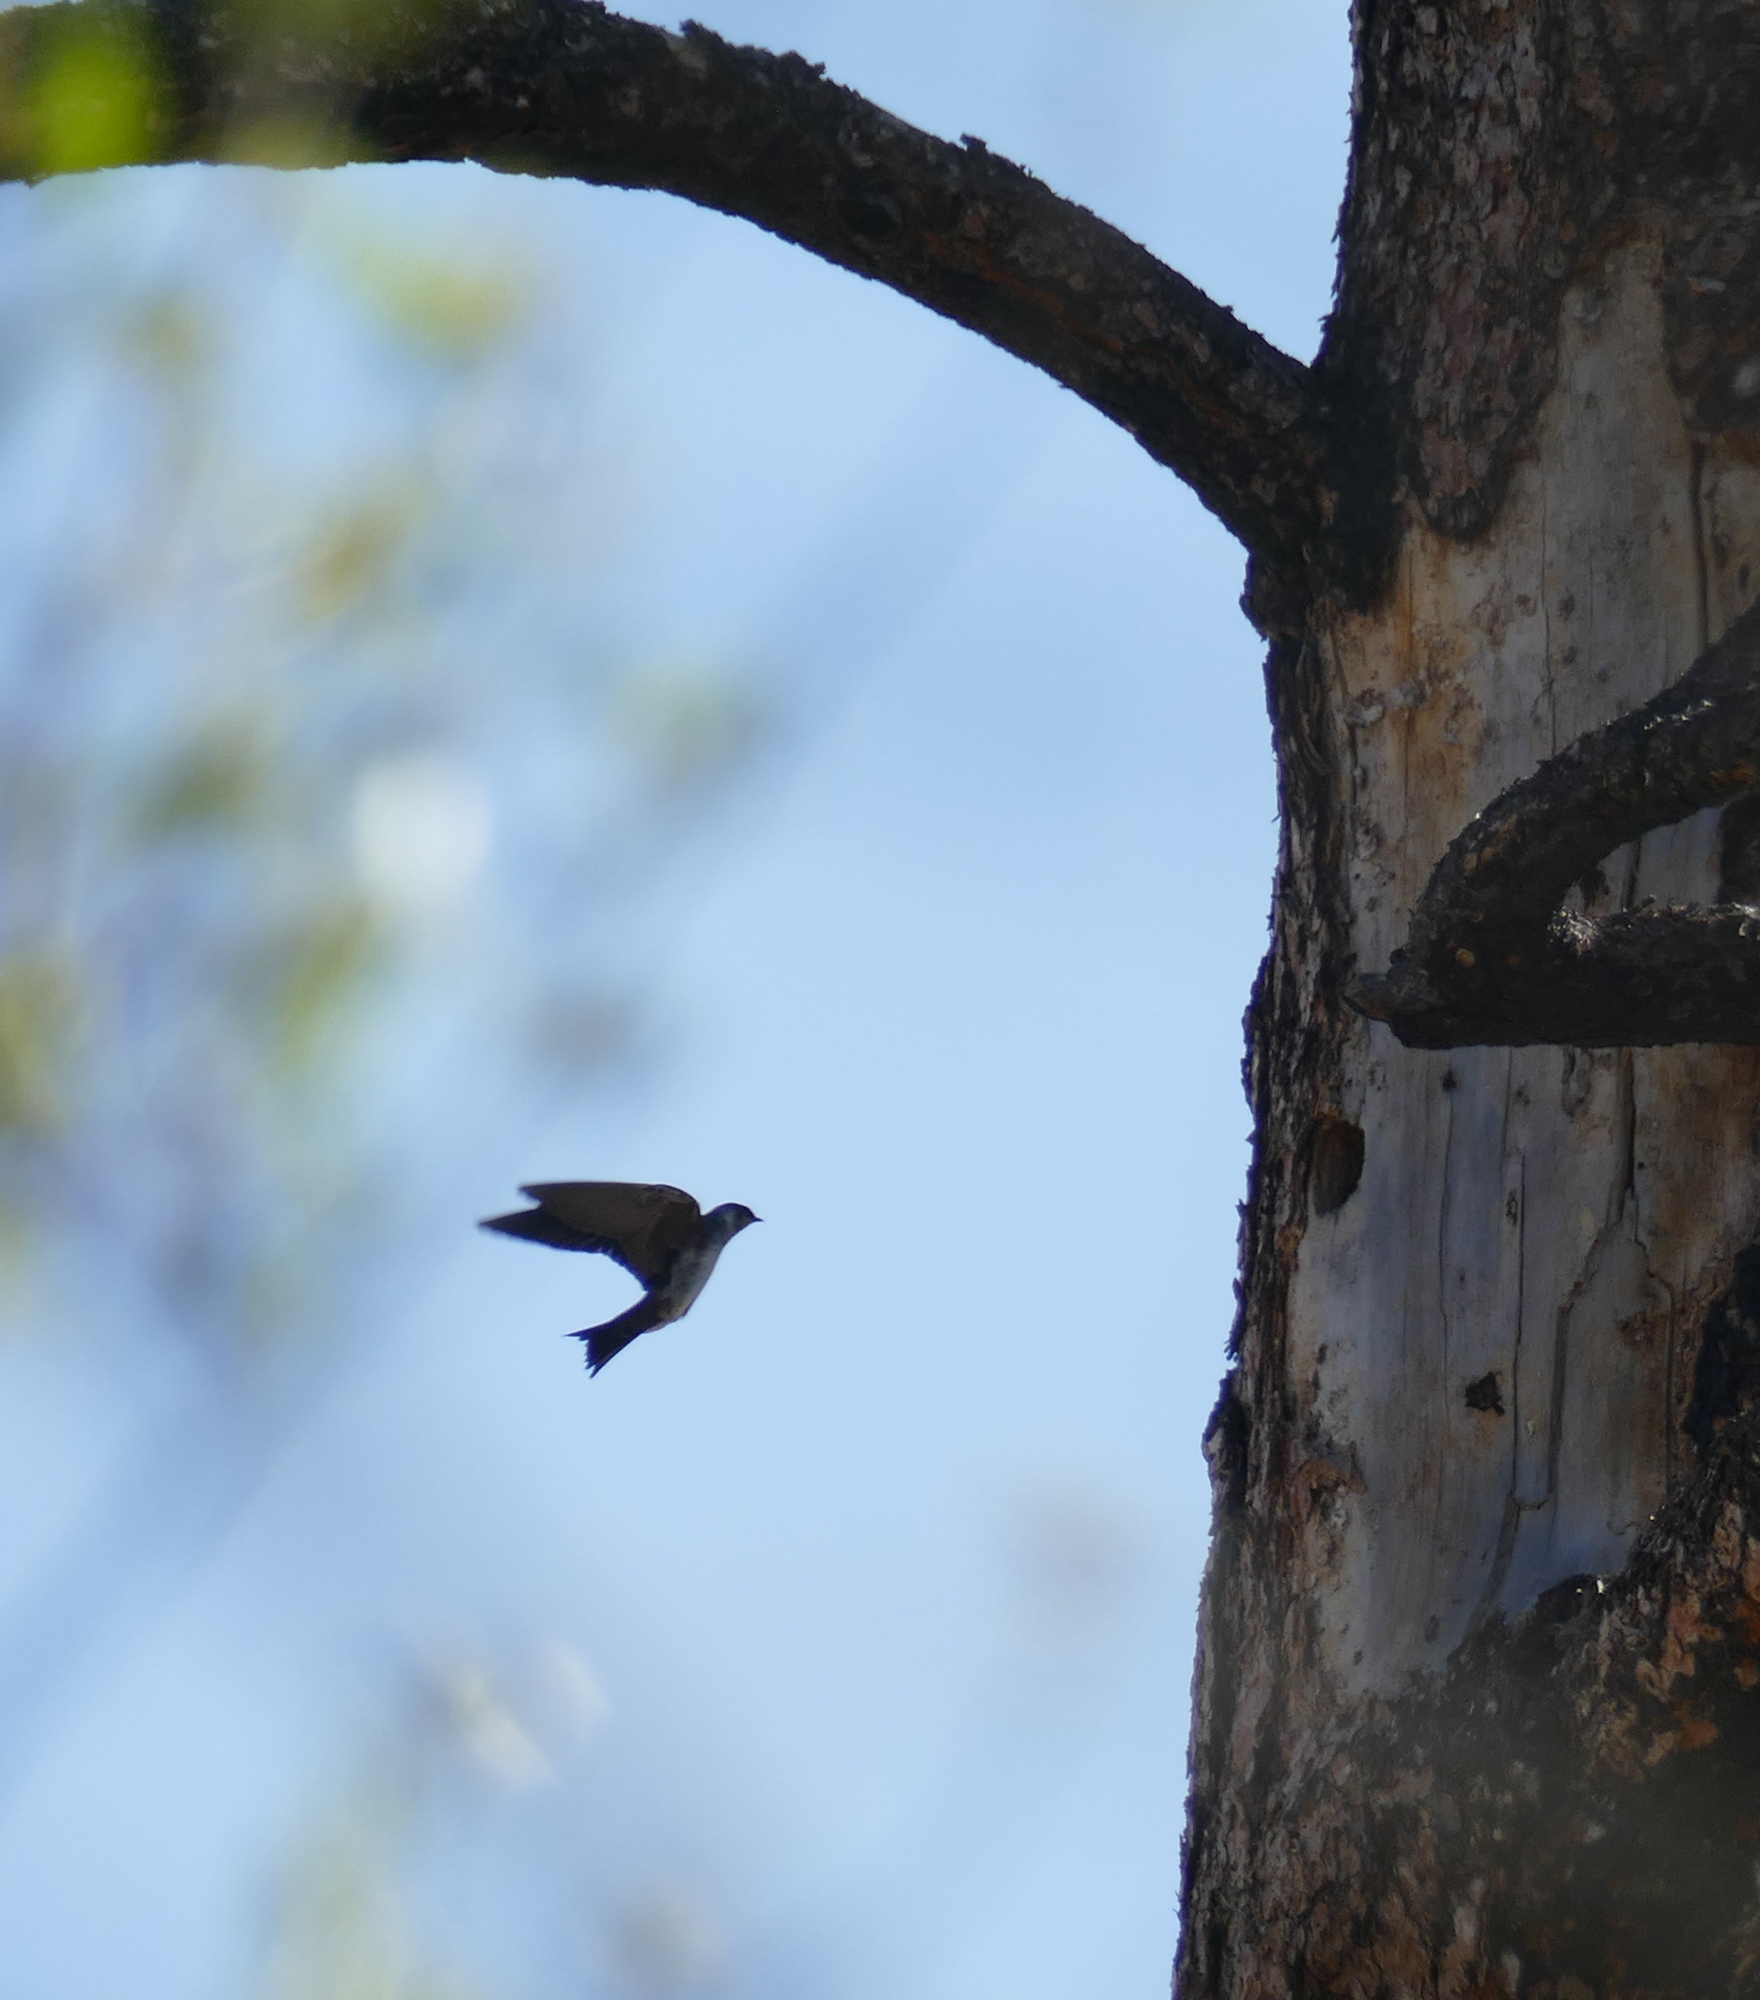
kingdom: Animalia
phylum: Chordata
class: Aves
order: Passeriformes
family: Hirundinidae
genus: Tachycineta
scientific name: Tachycineta thalassina
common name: Violet-green swallow
